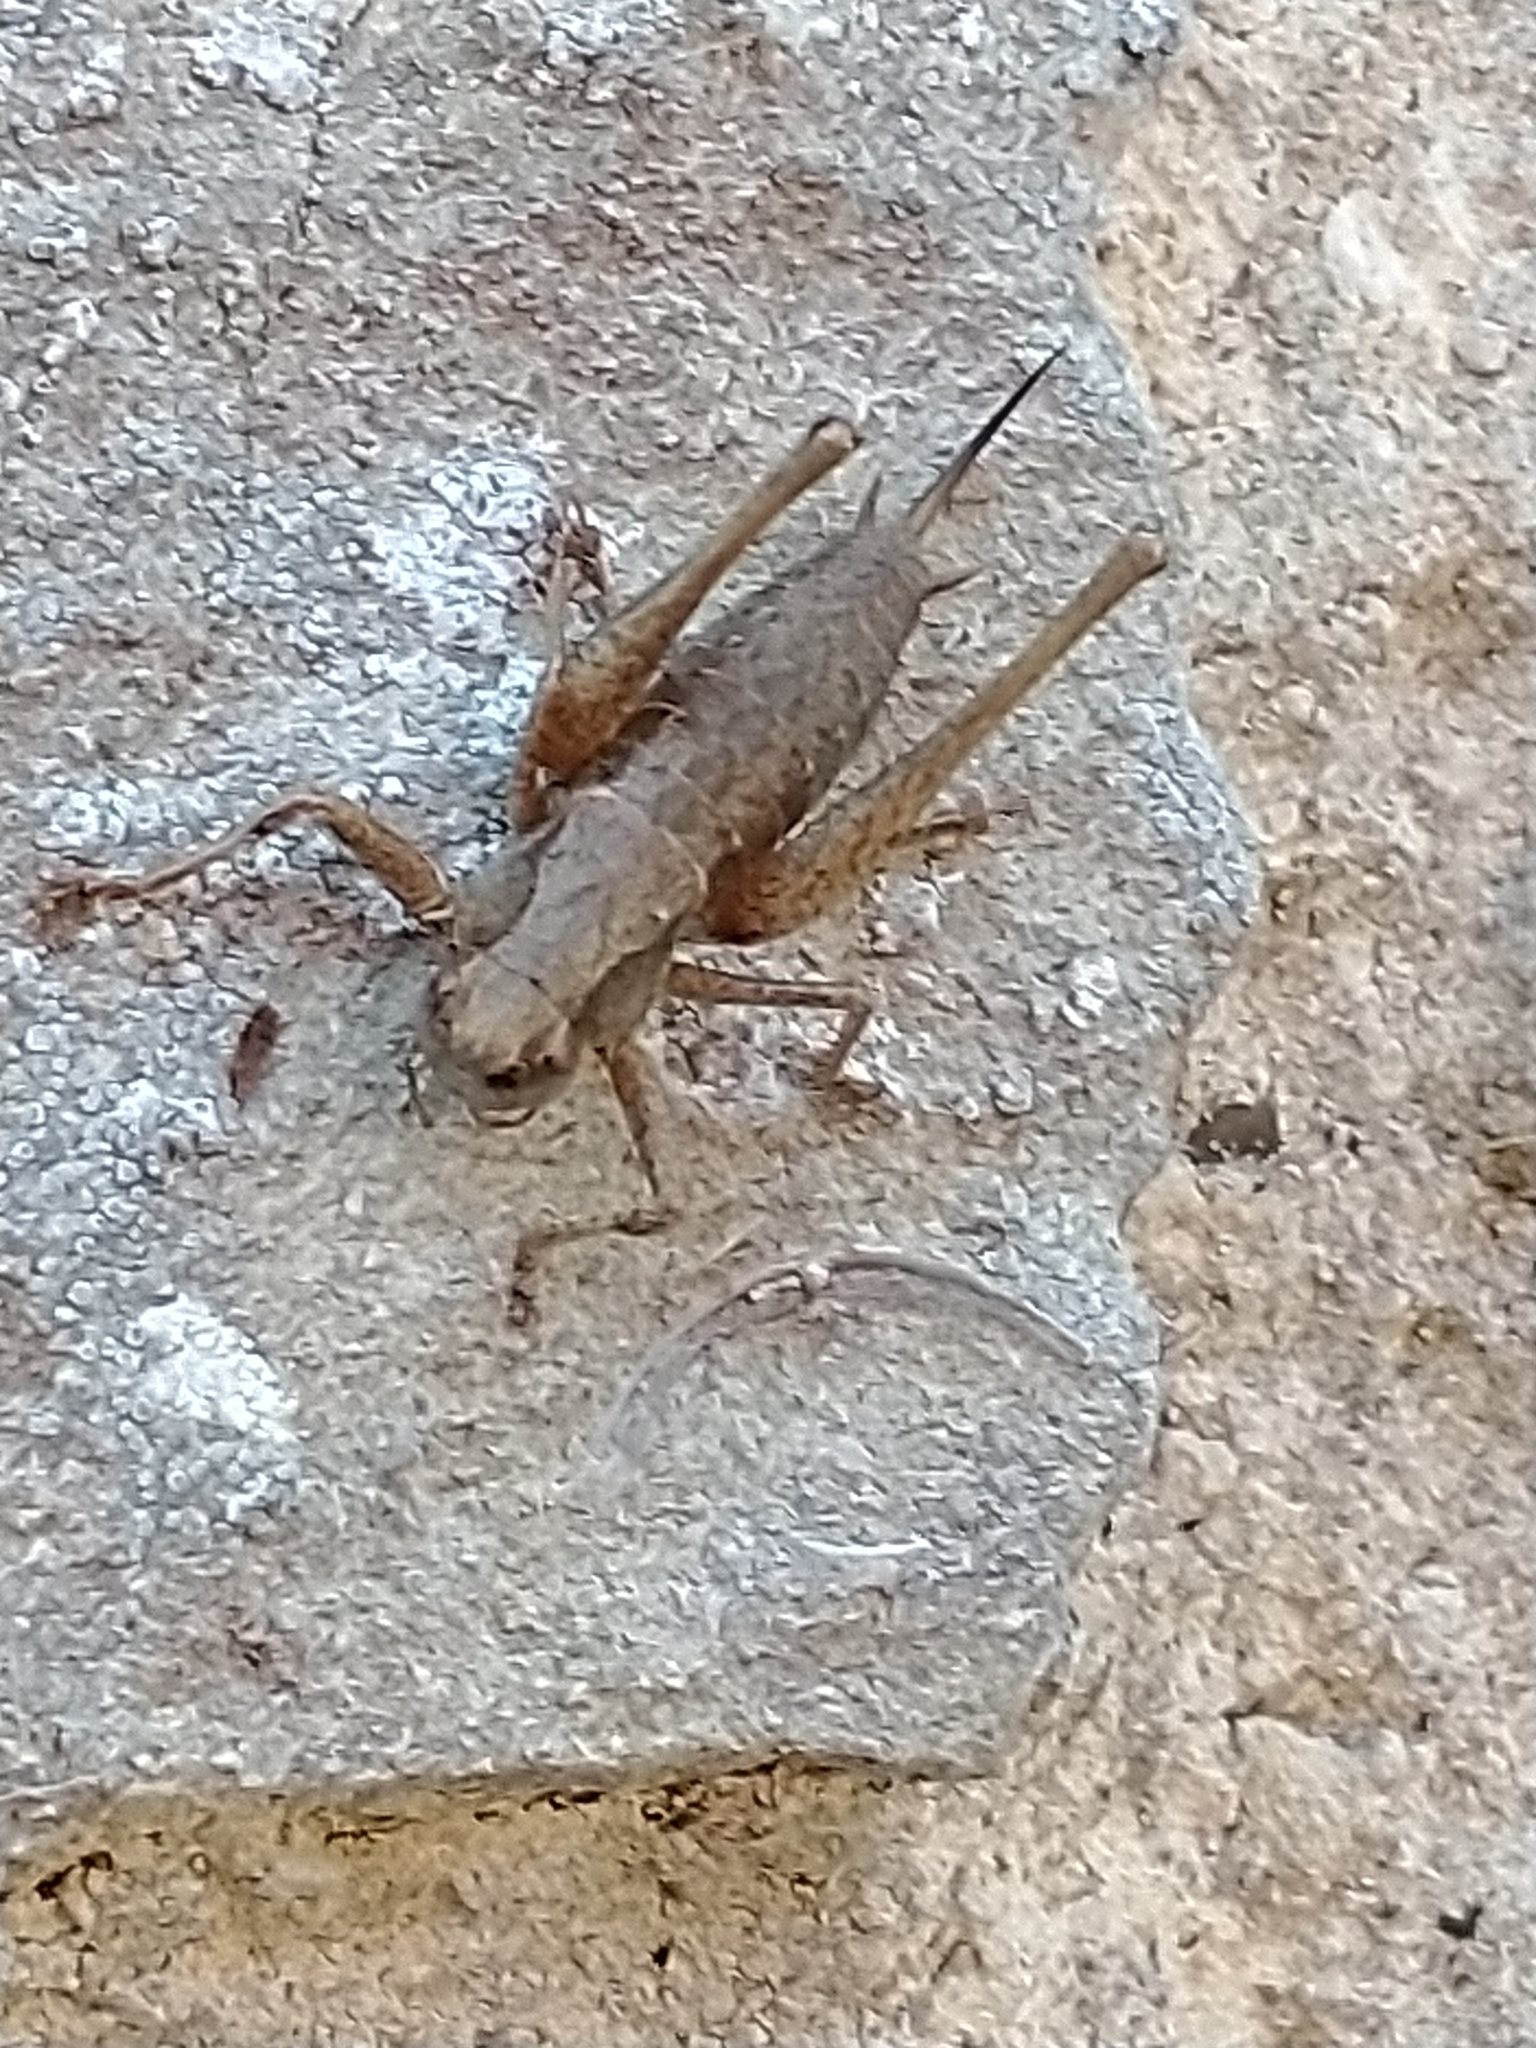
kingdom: Animalia
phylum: Arthropoda
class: Insecta
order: Orthoptera
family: Tettigoniidae
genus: Pholidoptera
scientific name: Pholidoptera griseoaptera
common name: Dark bush-cricket
